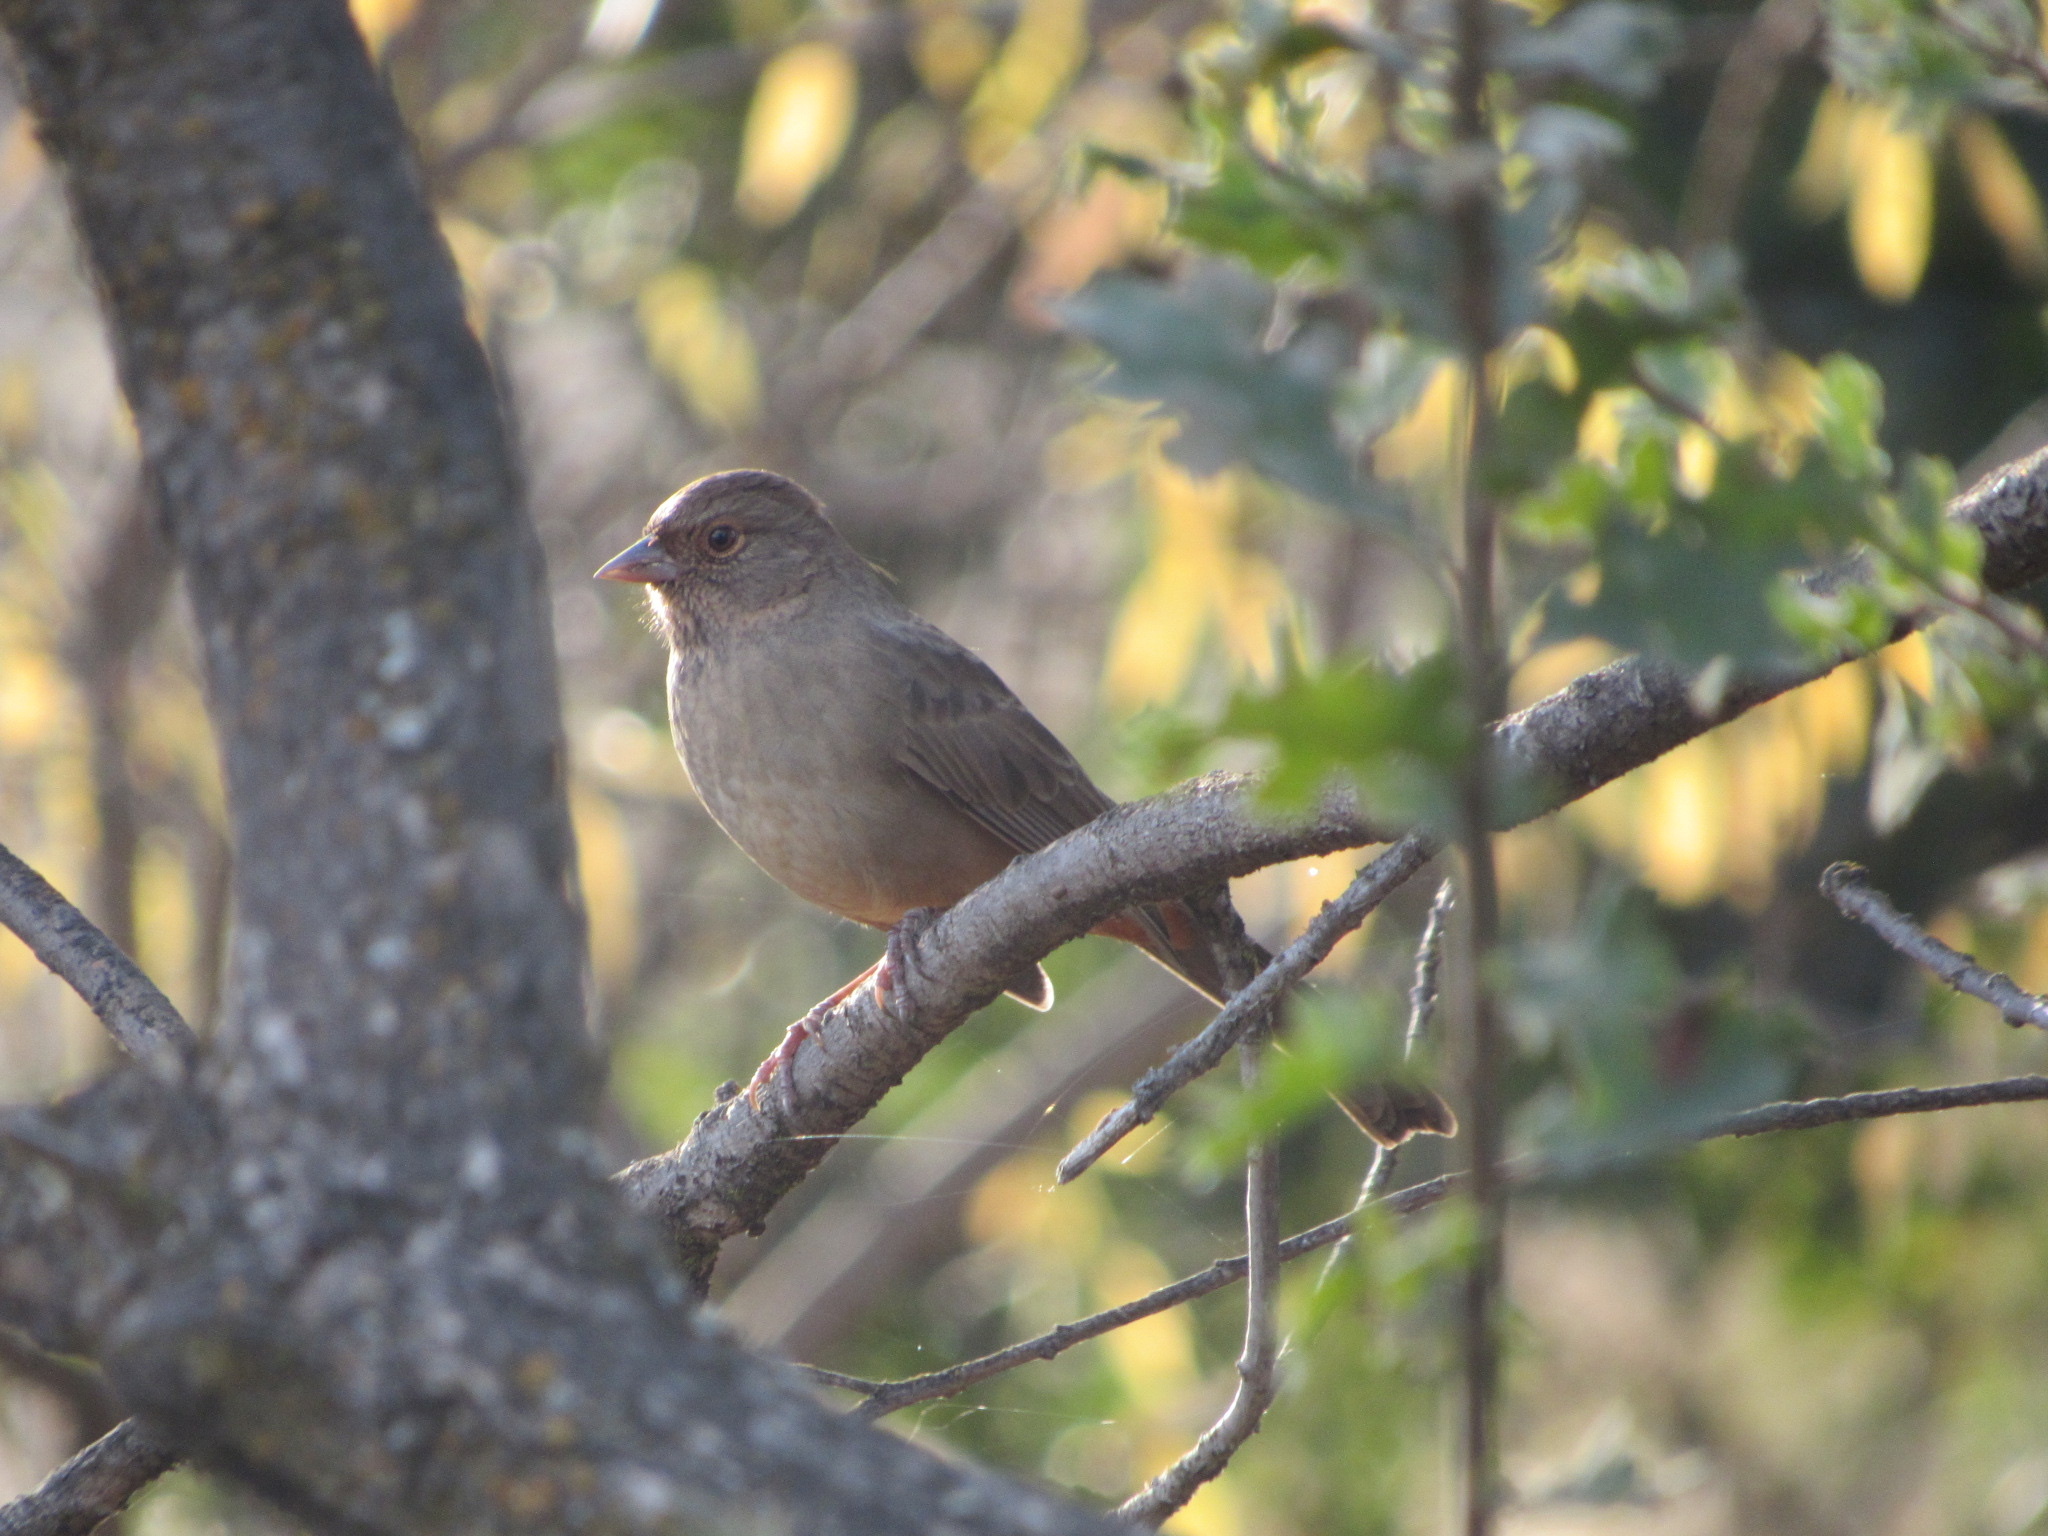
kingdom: Animalia
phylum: Chordata
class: Aves
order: Passeriformes
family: Passerellidae
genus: Melozone
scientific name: Melozone crissalis
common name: California towhee
